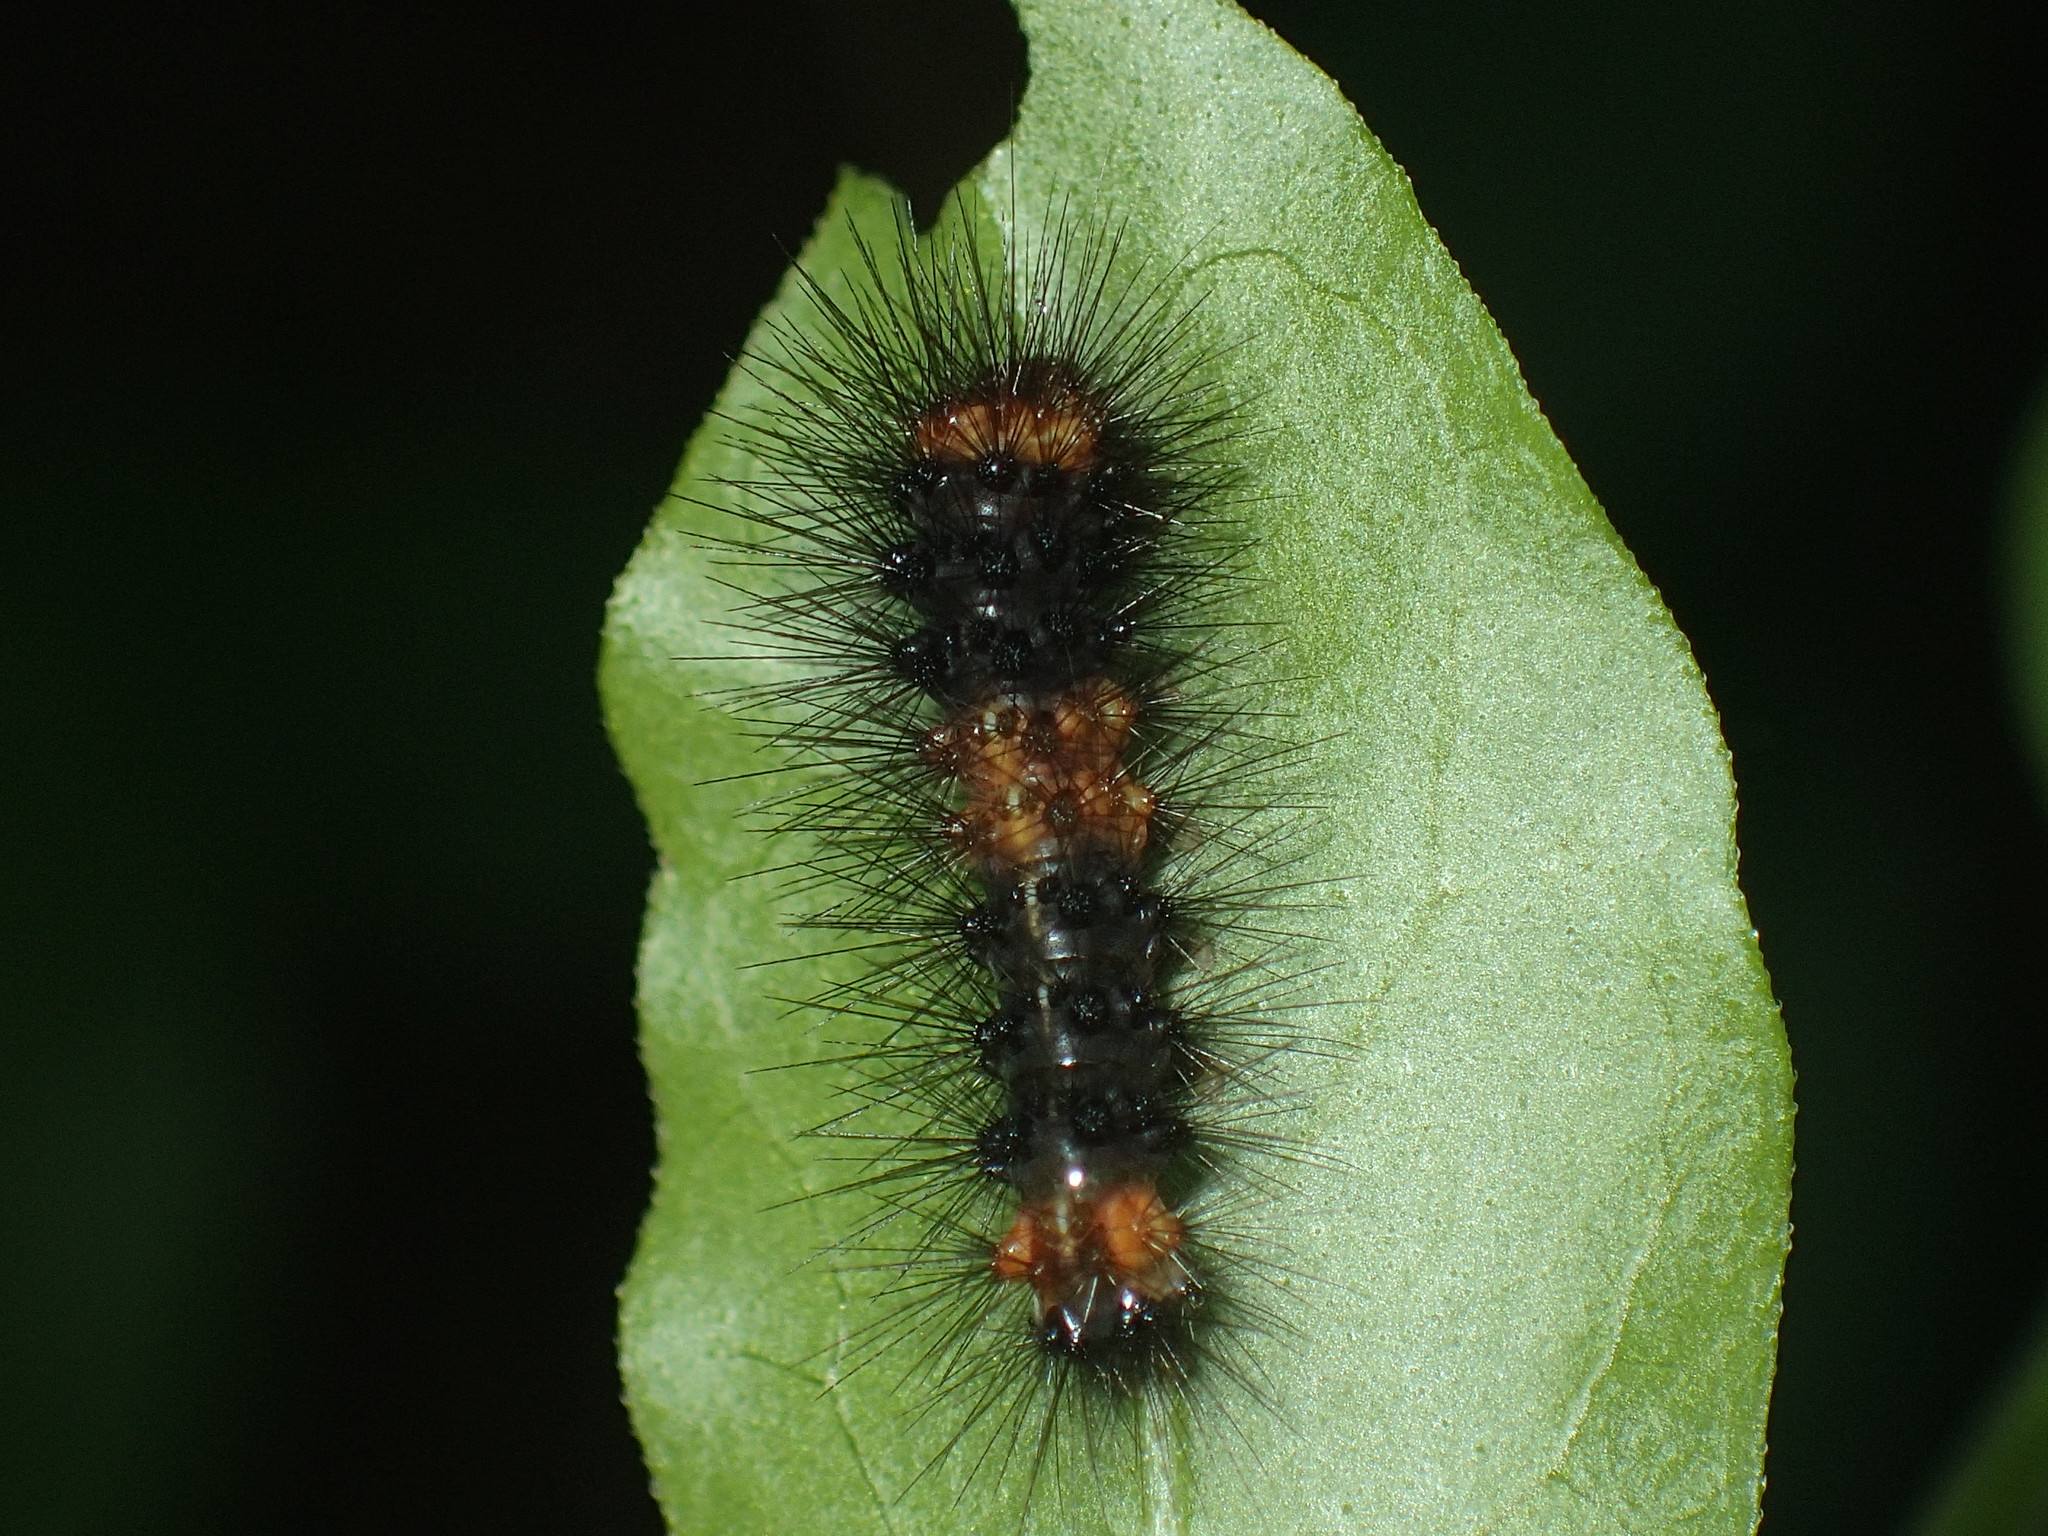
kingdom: Animalia
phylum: Arthropoda
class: Insecta
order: Lepidoptera
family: Erebidae
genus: Hypercompe
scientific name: Hypercompe scribonia
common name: Giant leopard moth
